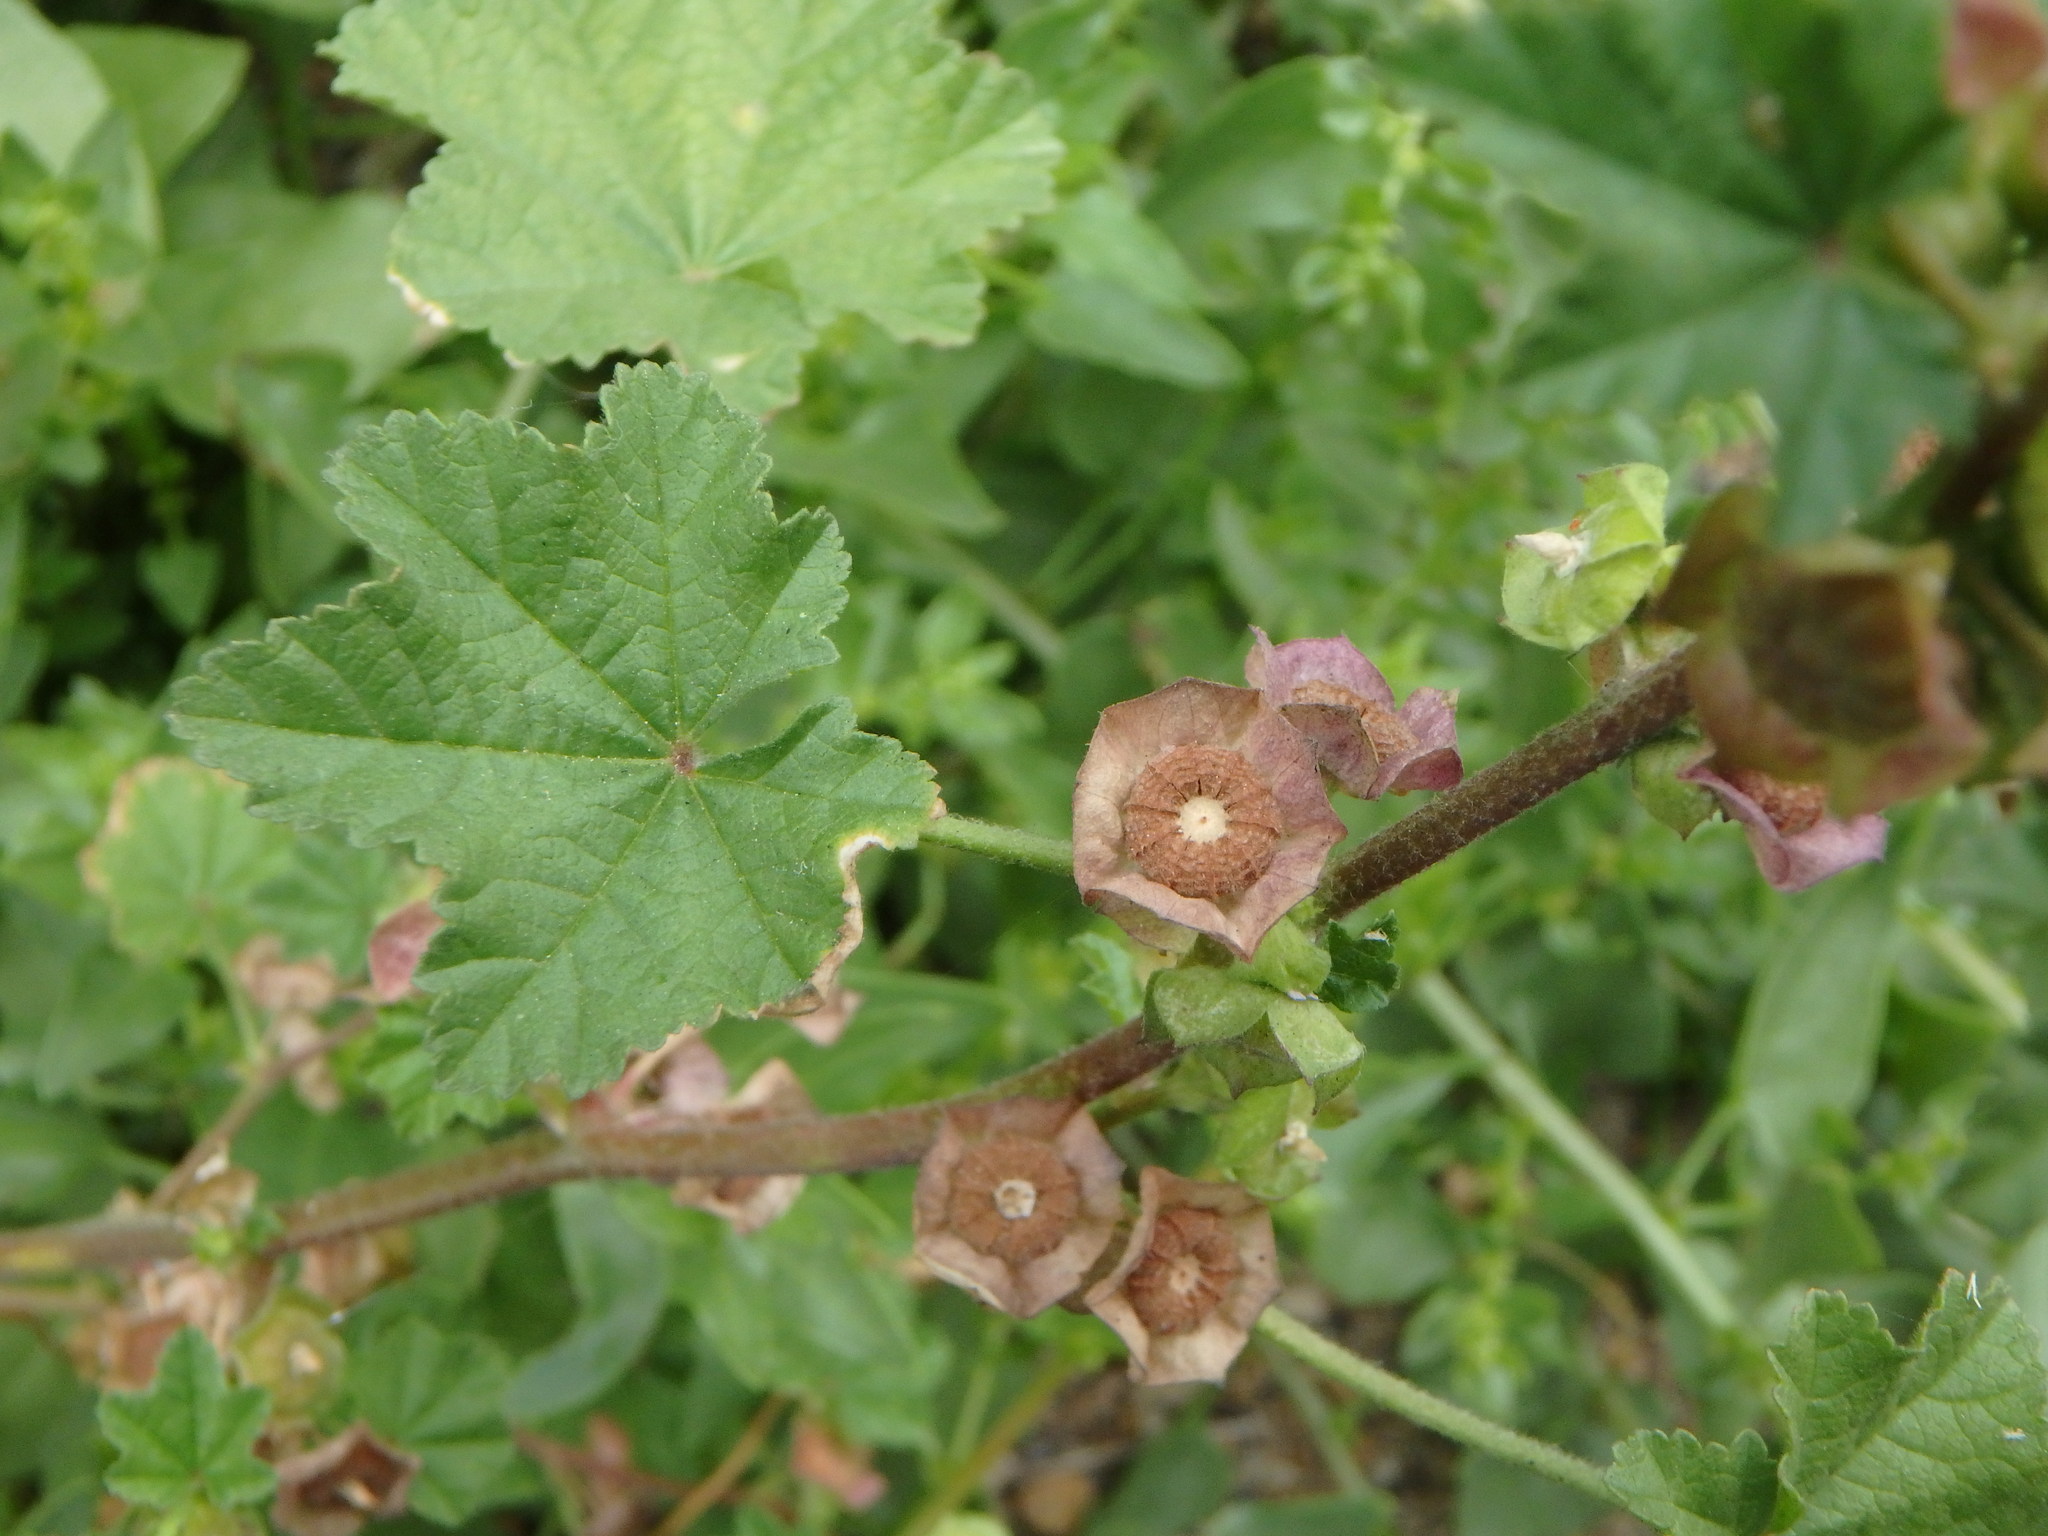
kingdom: Plantae
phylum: Tracheophyta
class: Magnoliopsida
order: Malvales
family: Malvaceae
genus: Malva
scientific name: Malva parviflora
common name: Least mallow
